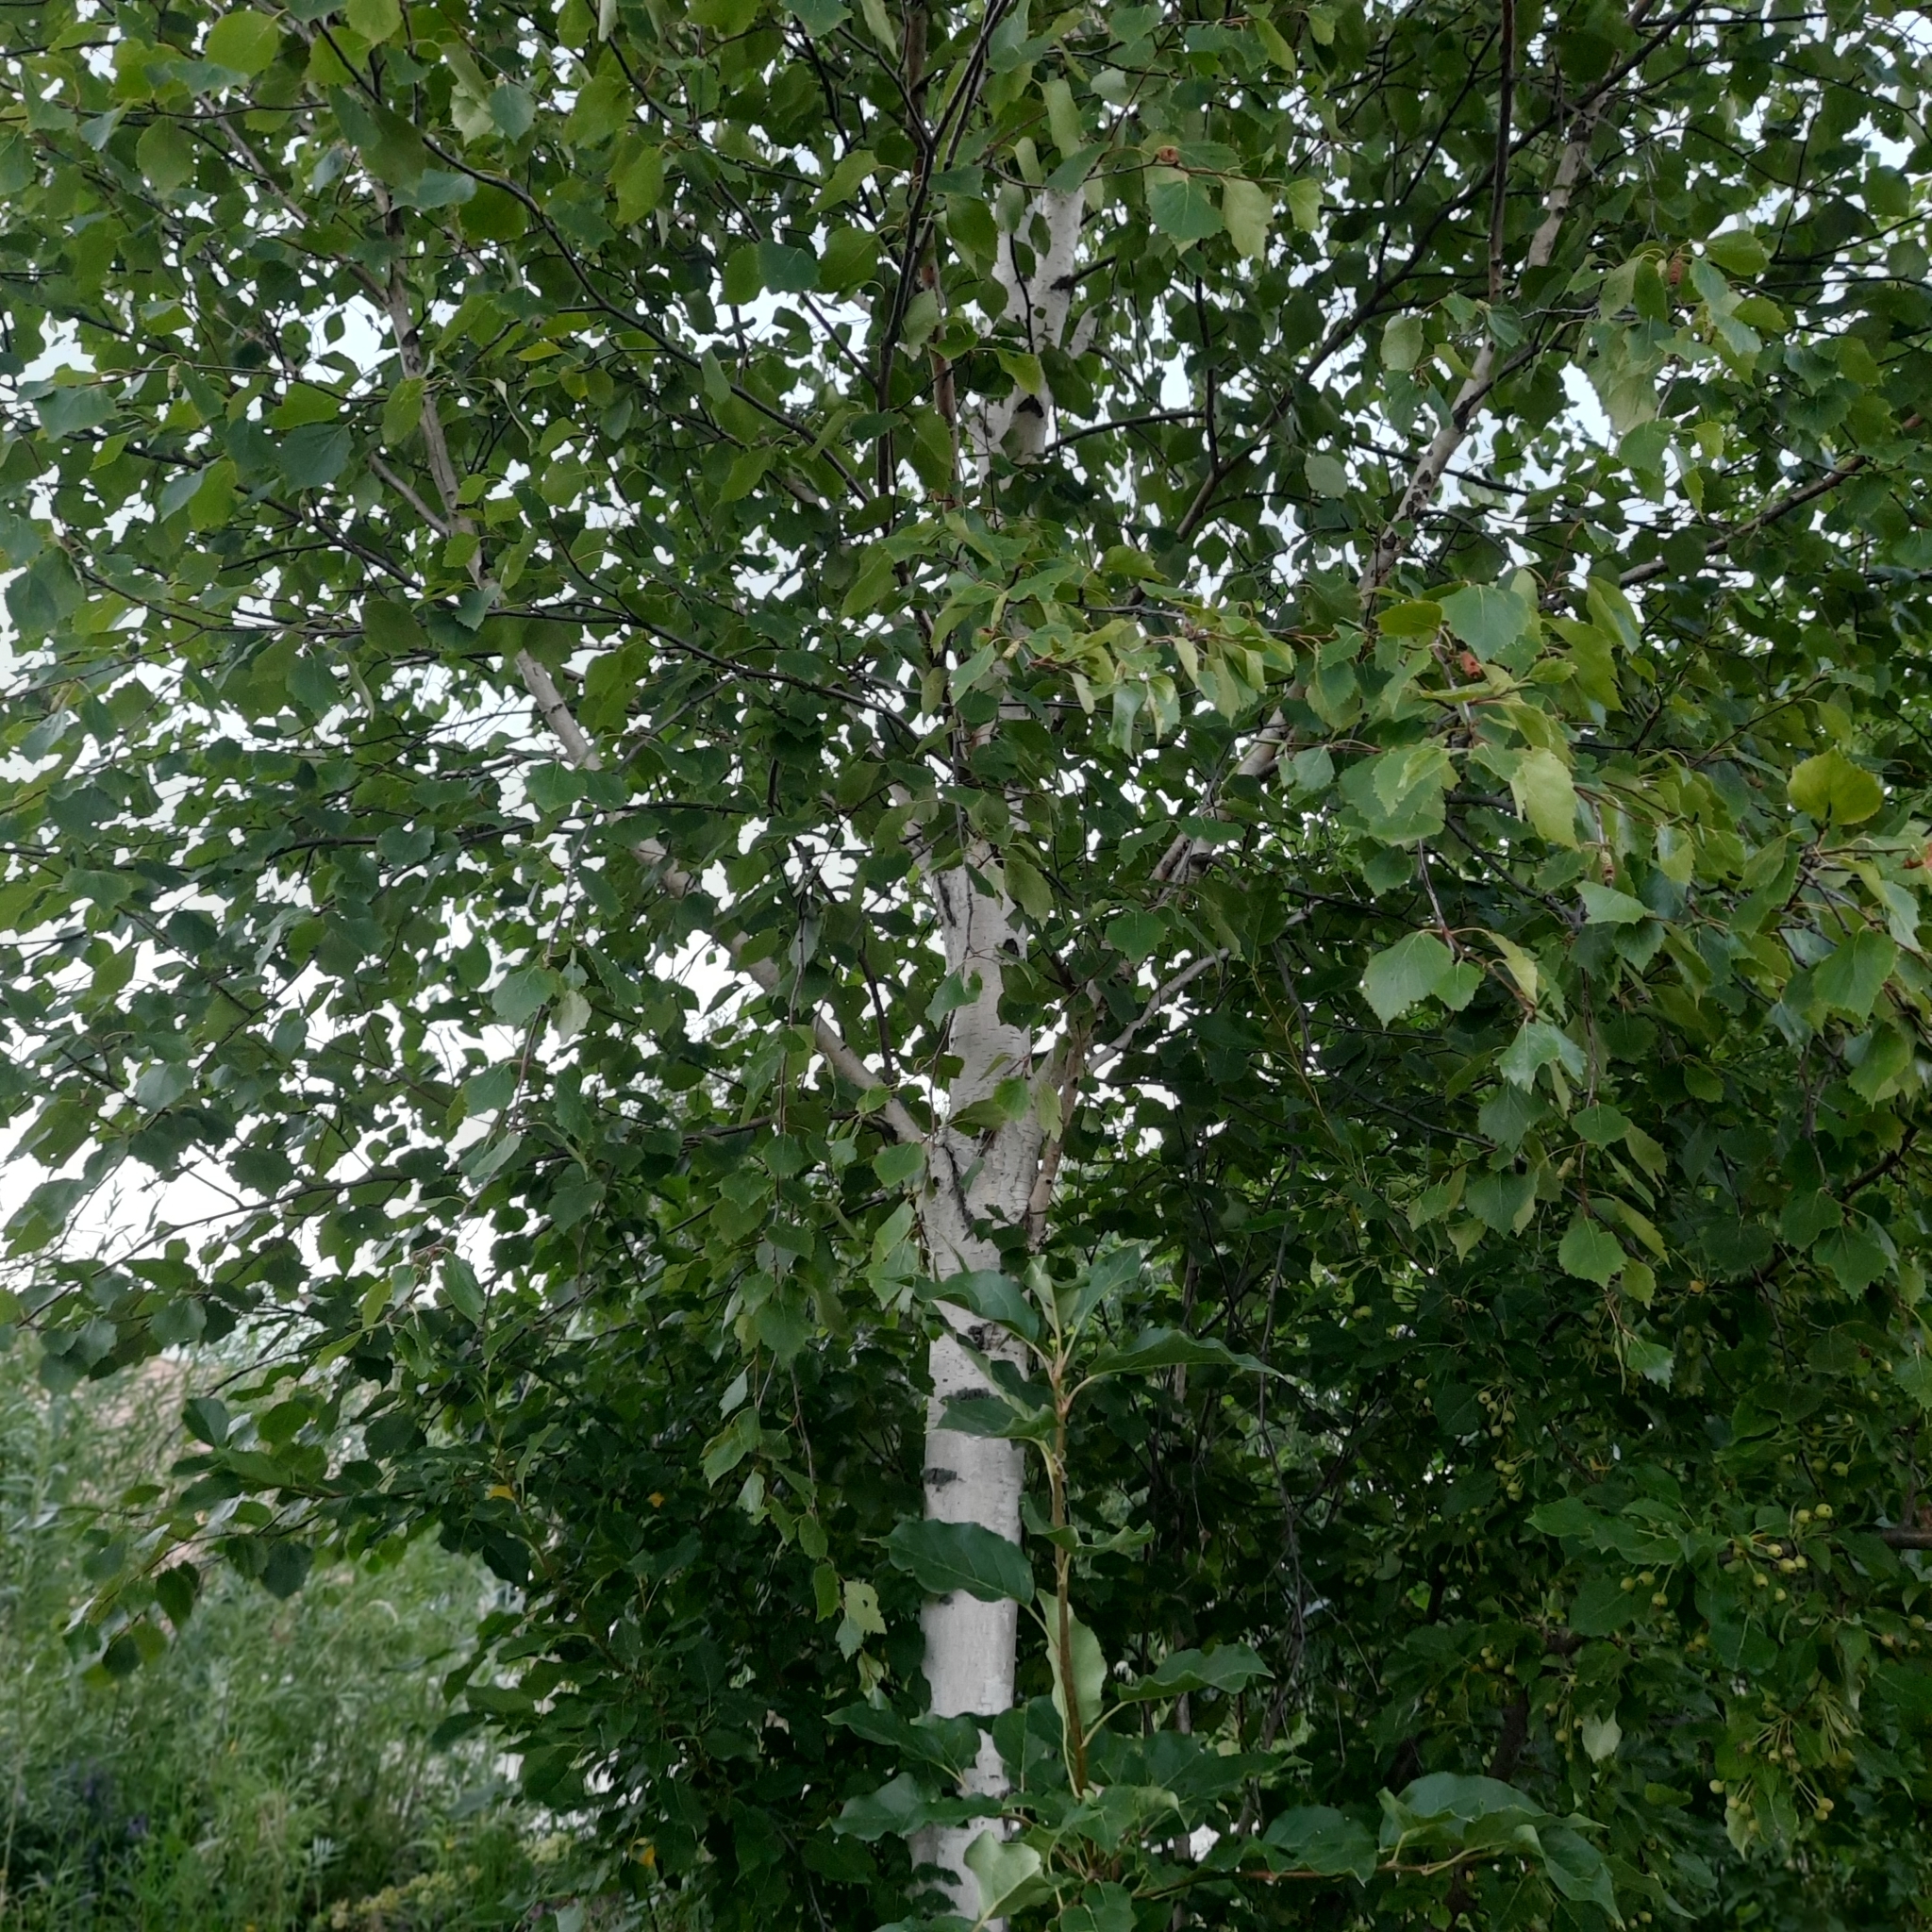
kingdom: Plantae
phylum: Tracheophyta
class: Magnoliopsida
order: Fagales
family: Betulaceae
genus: Betula
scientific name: Betula pendula
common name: Silver birch
